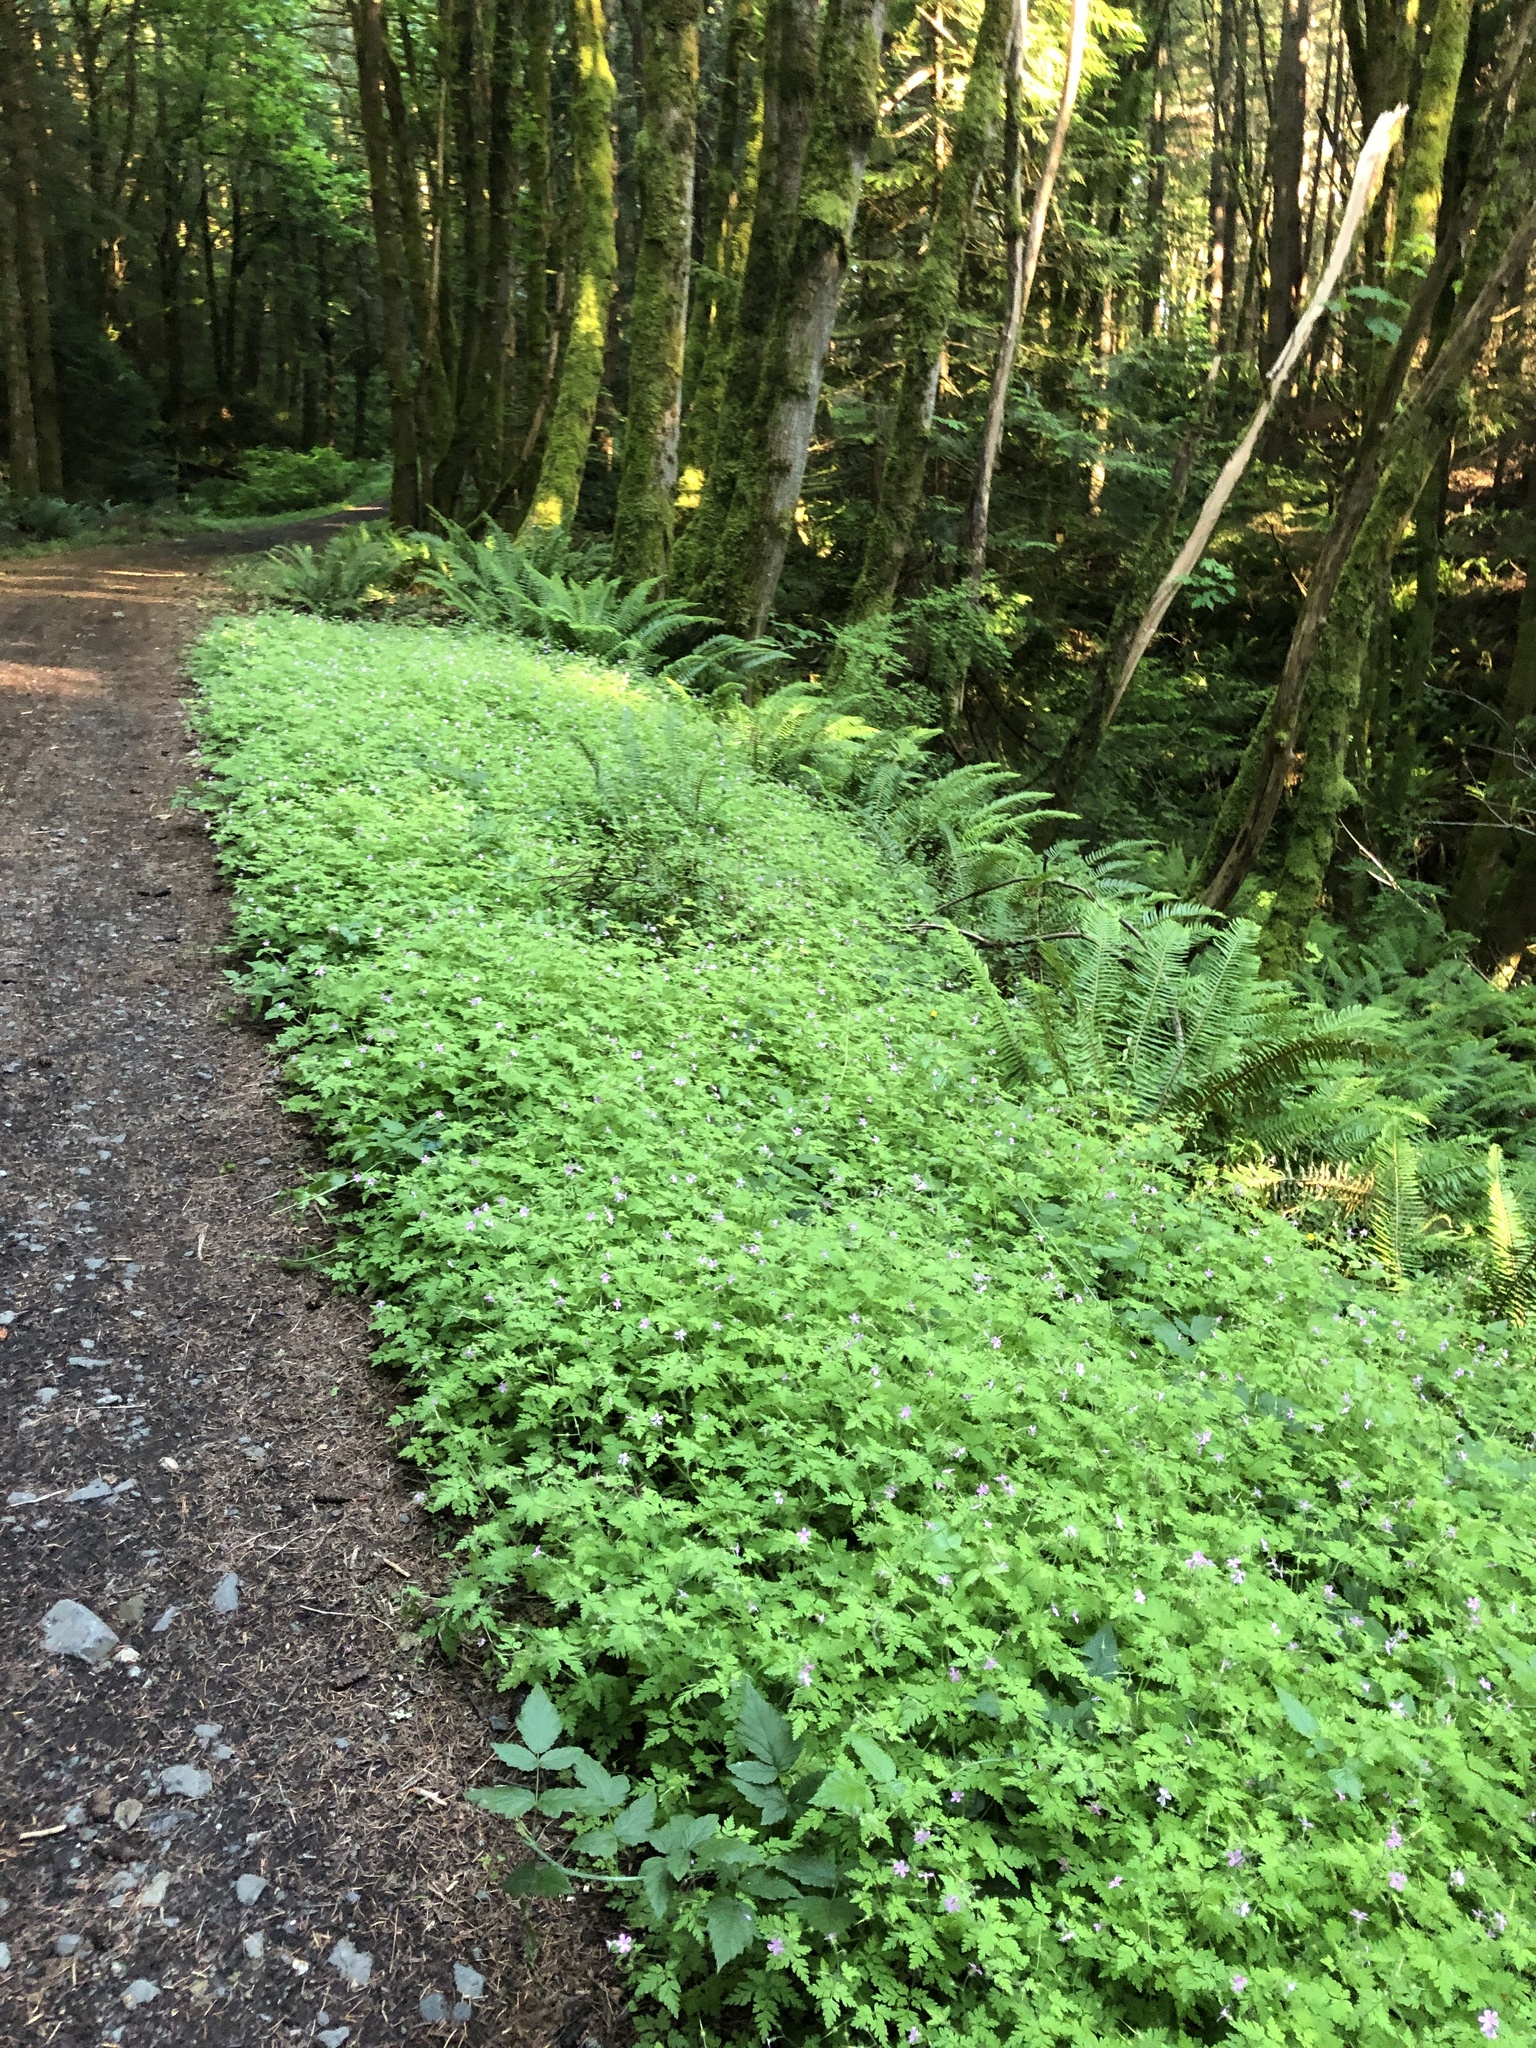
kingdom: Plantae
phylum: Tracheophyta
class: Magnoliopsida
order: Geraniales
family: Geraniaceae
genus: Geranium
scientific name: Geranium robertianum
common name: Herb-robert
